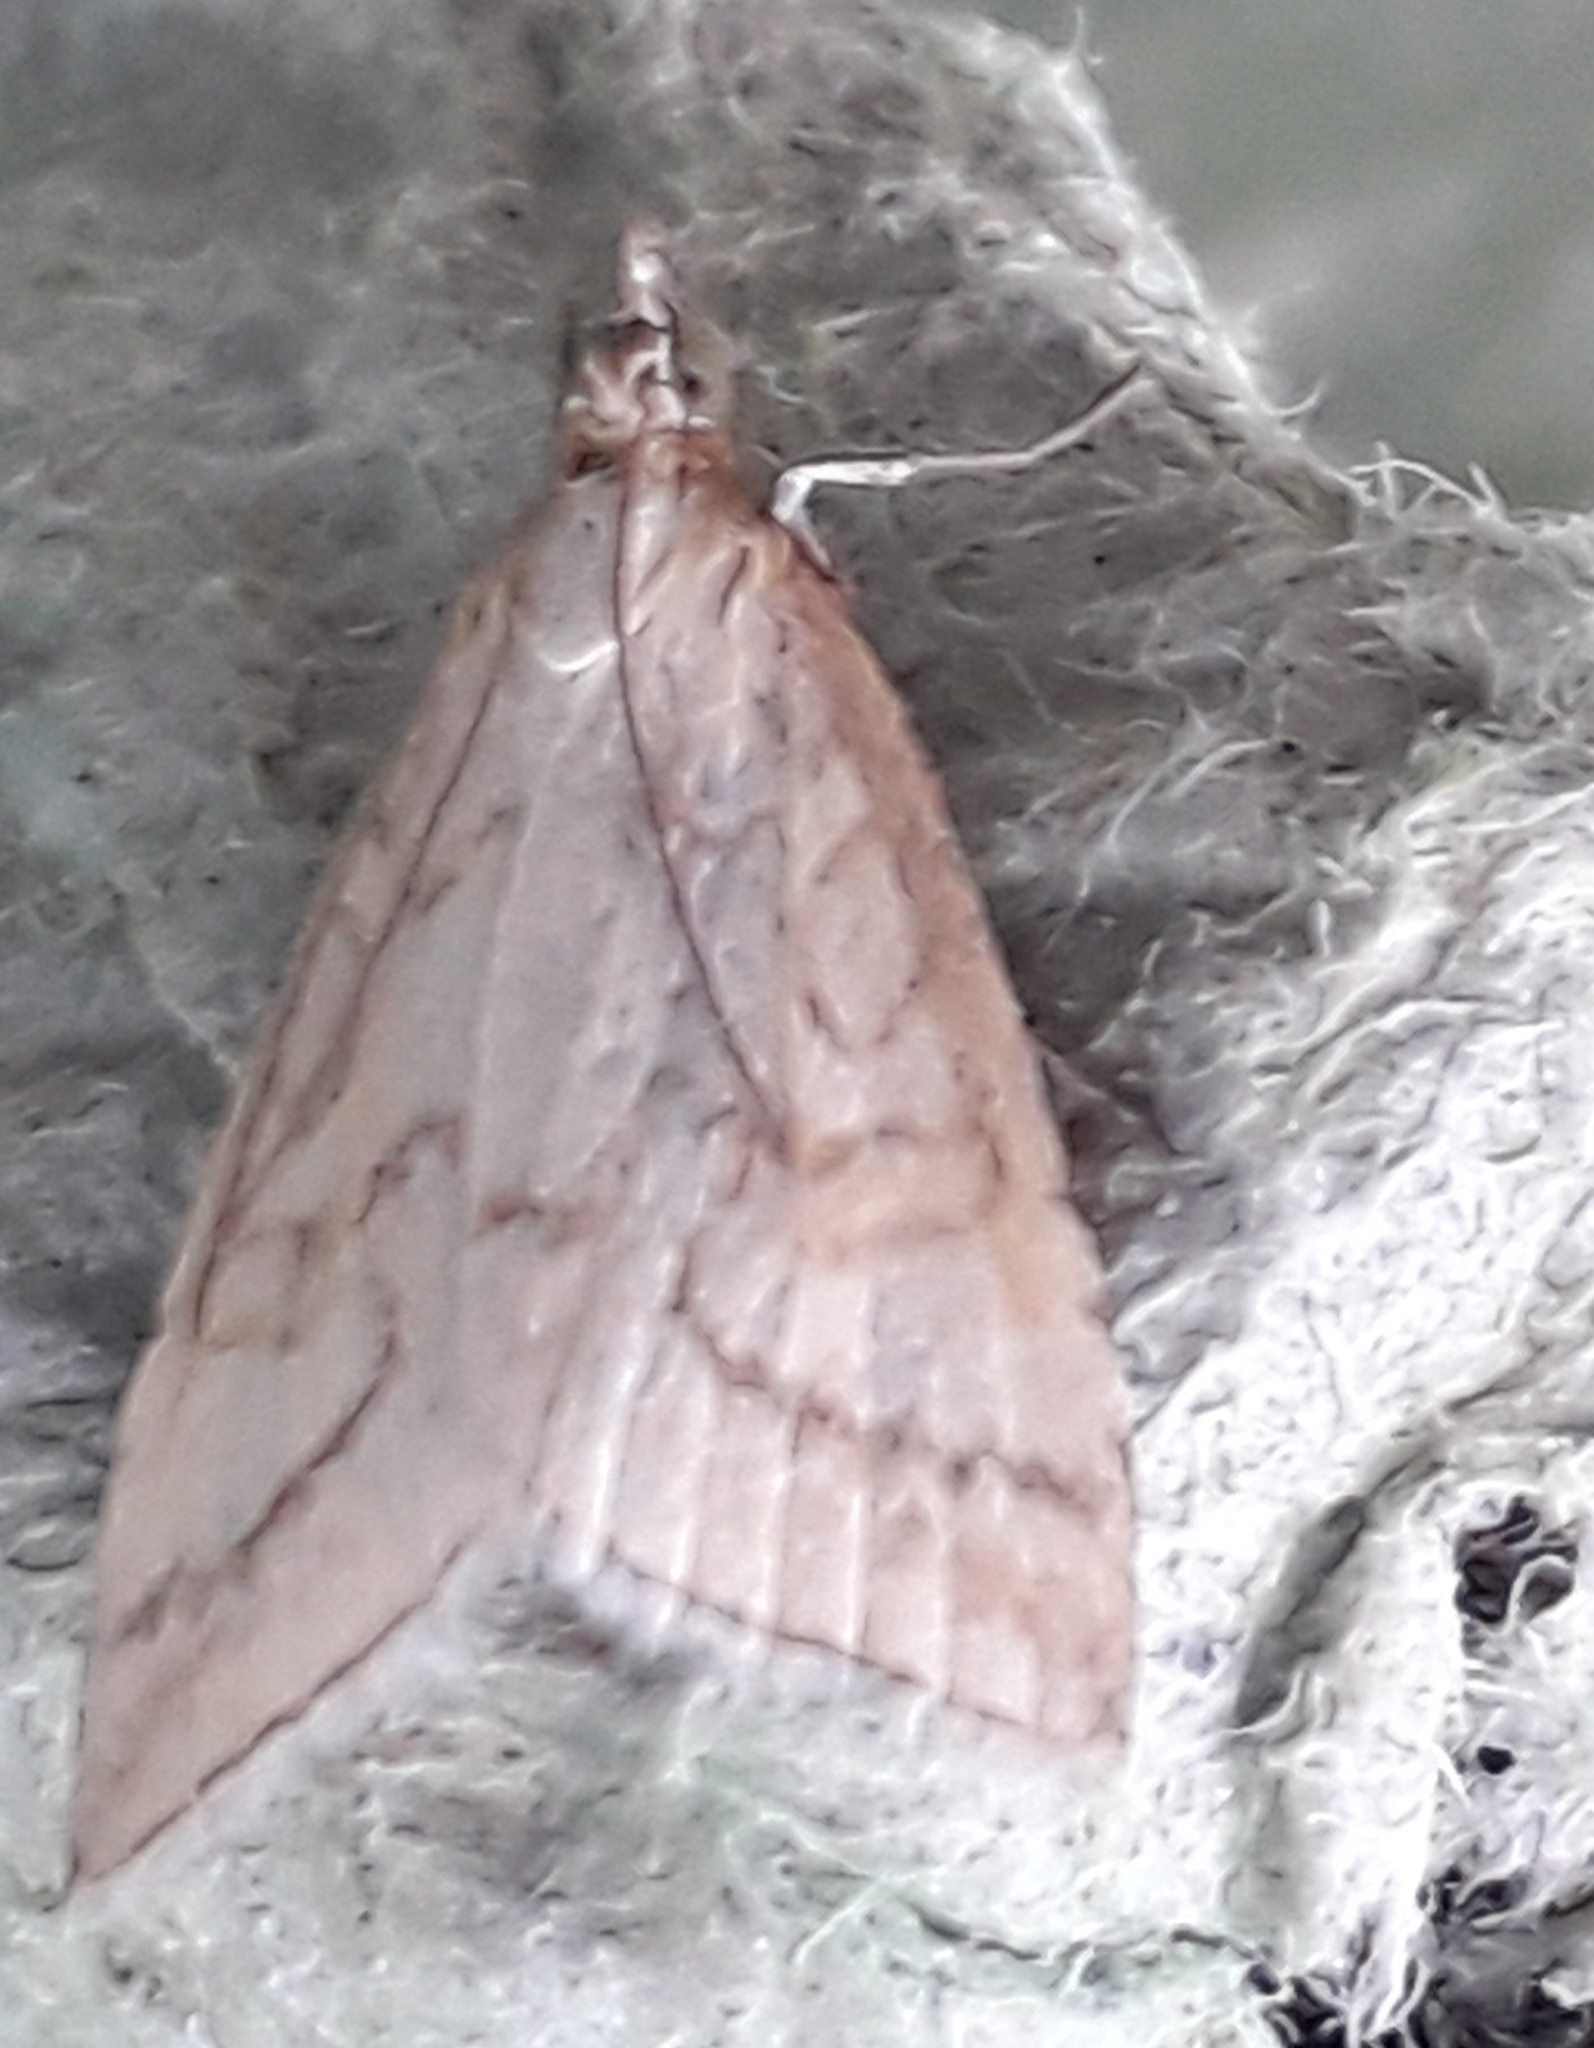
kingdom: Animalia
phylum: Arthropoda
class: Insecta
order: Lepidoptera
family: Crambidae
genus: Udea
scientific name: Udea lutealis
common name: Pale straw pearl
